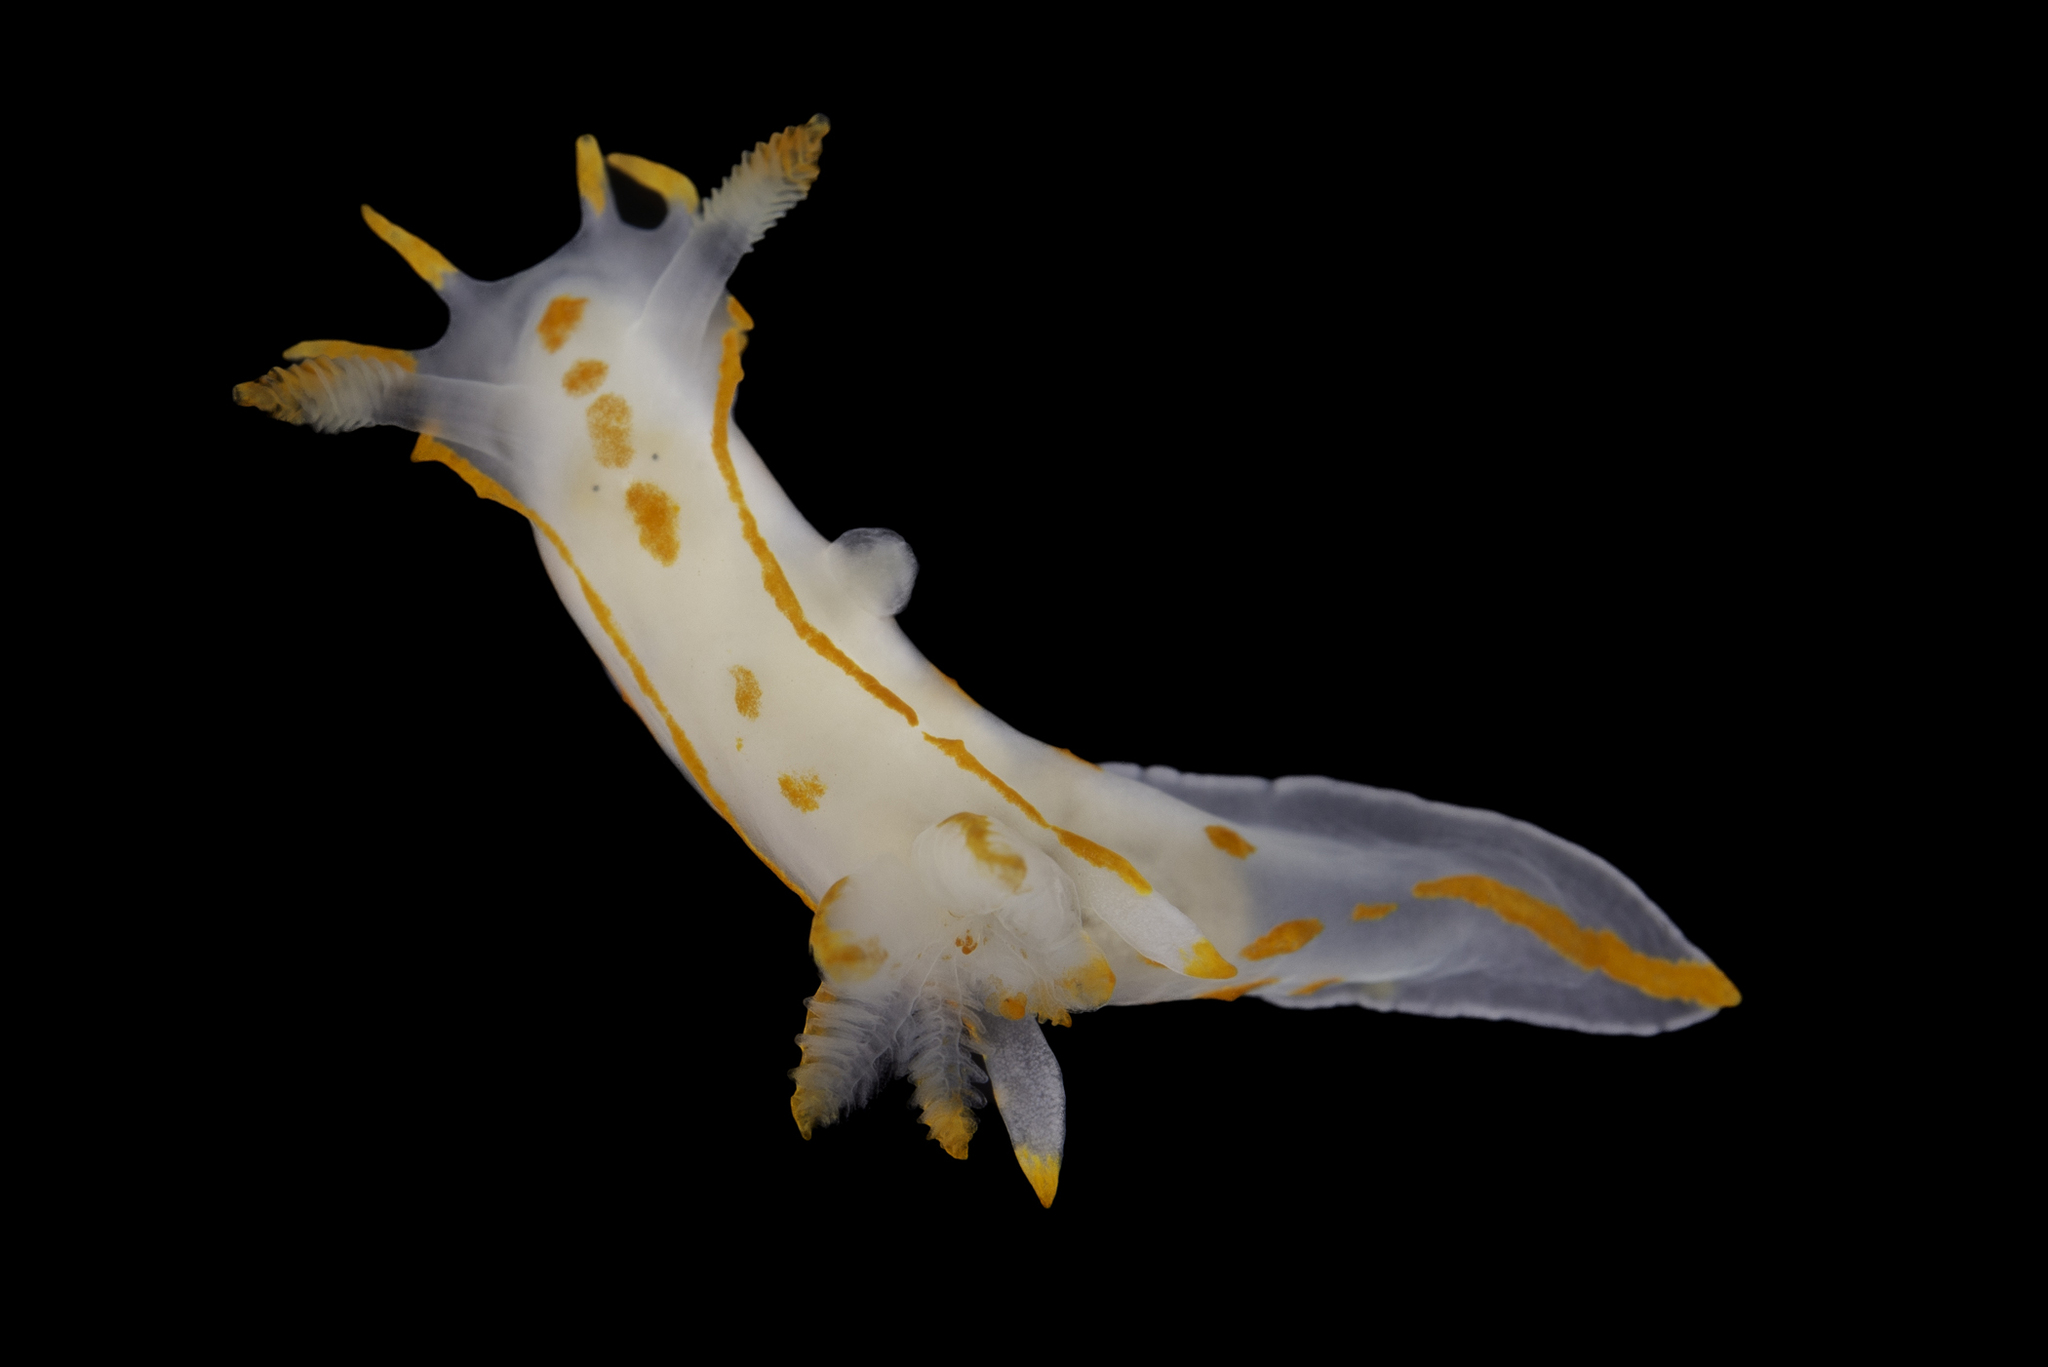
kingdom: Animalia
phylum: Mollusca
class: Gastropoda
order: Nudibranchia
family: Polyceridae
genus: Polycera
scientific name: Polycera norvegica
